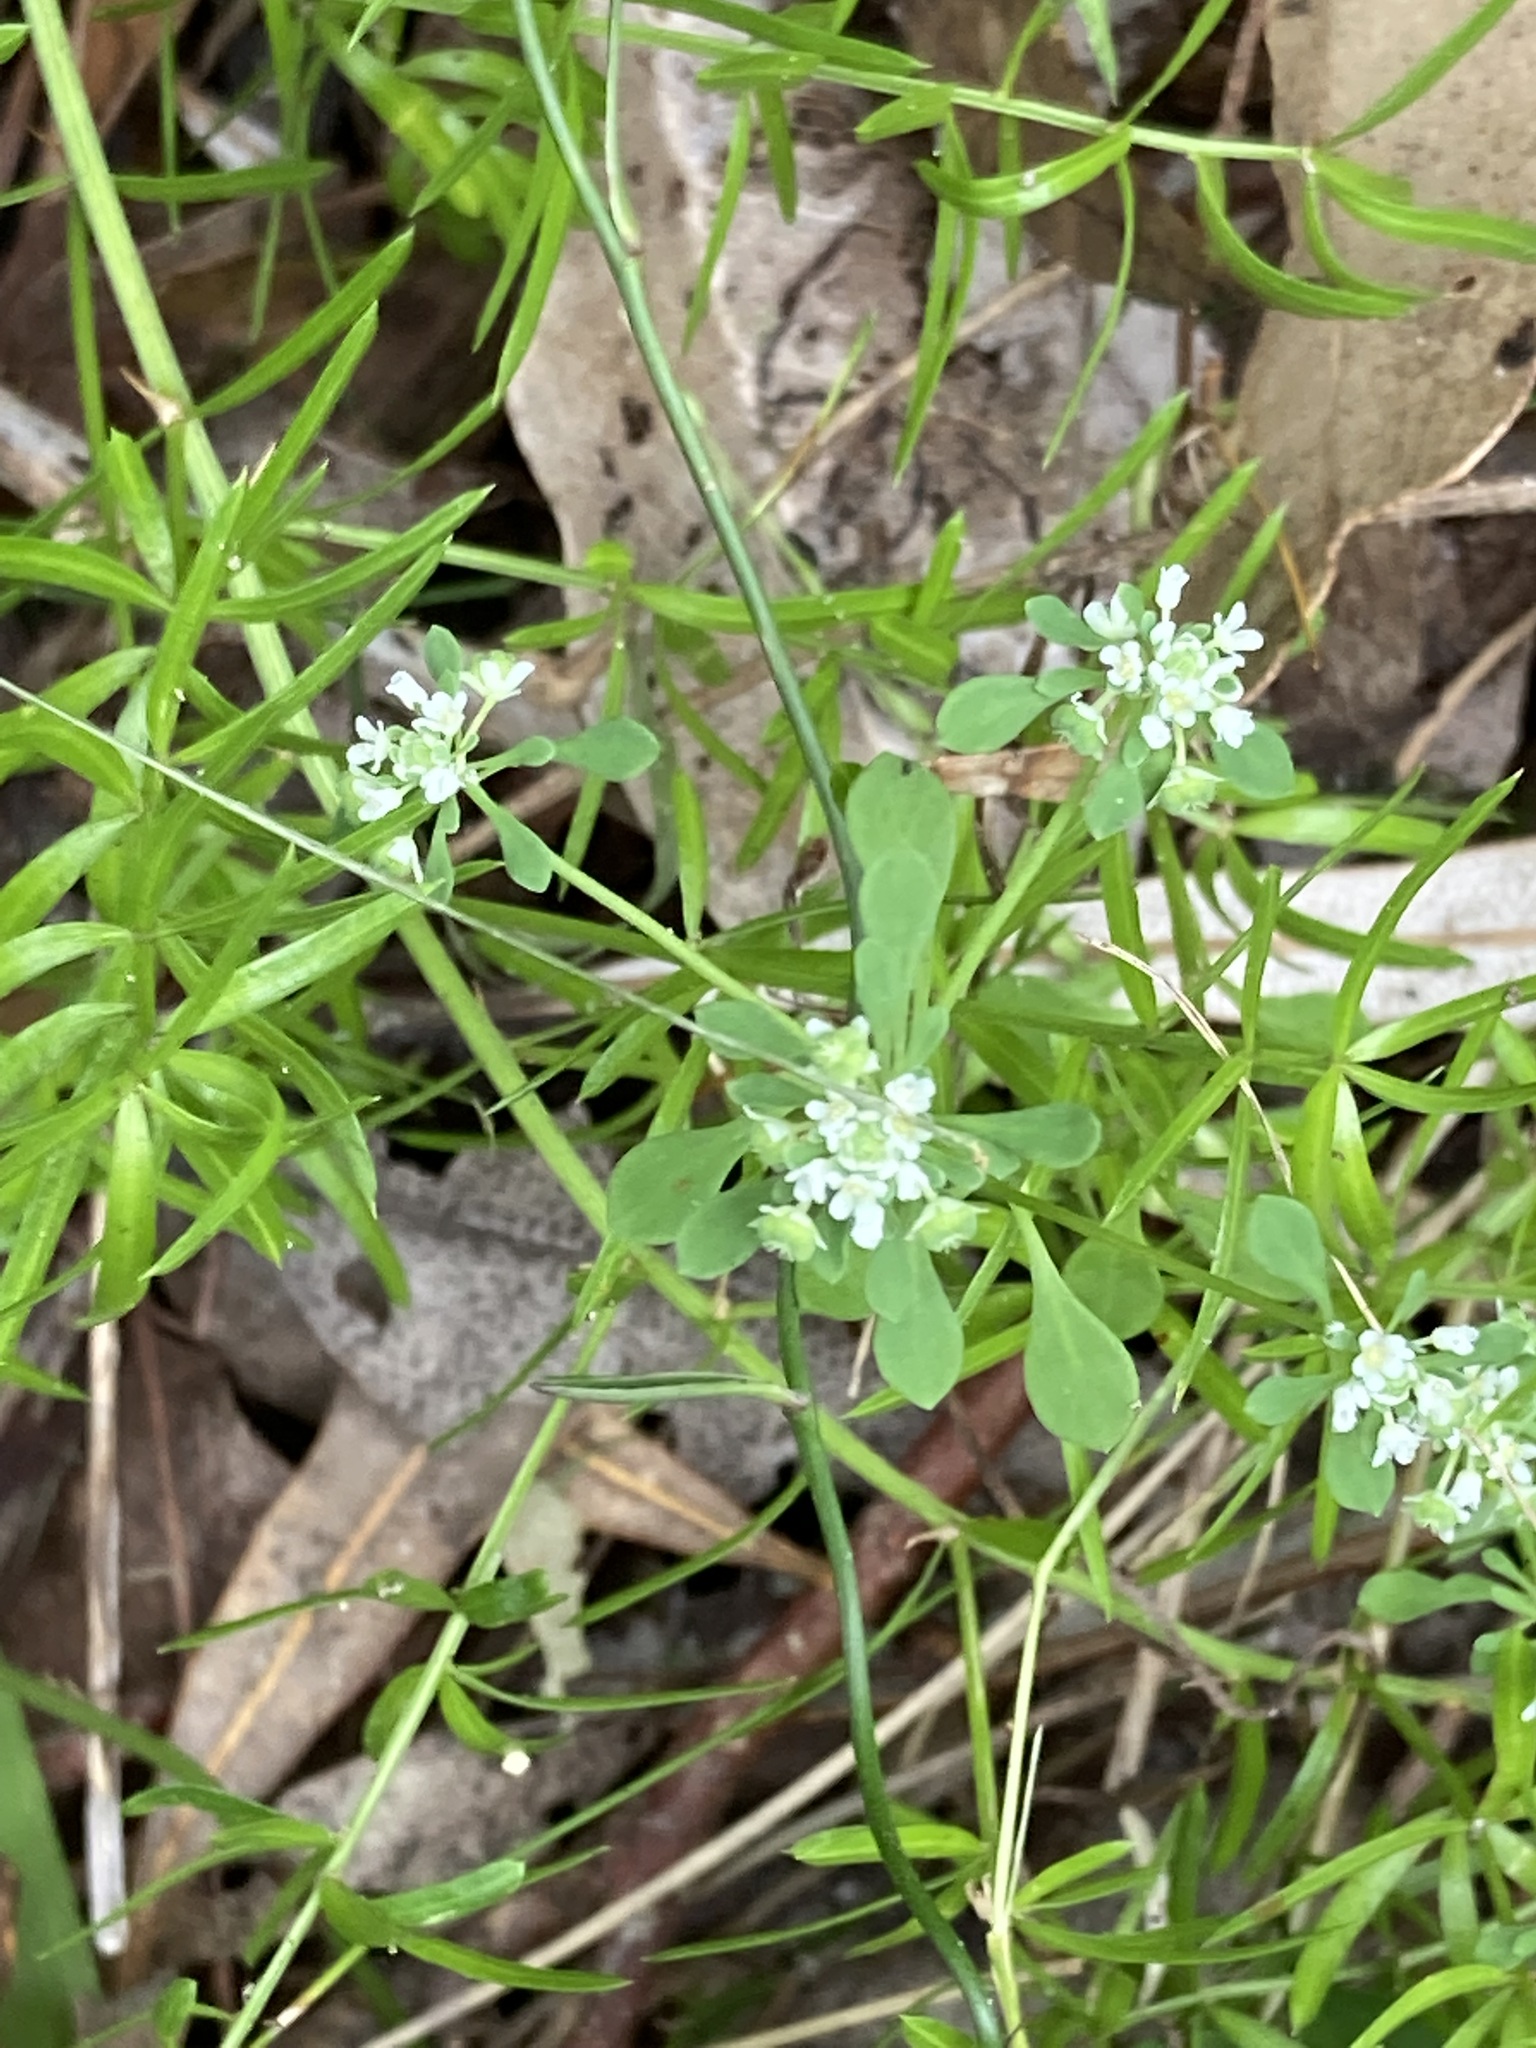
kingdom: Plantae
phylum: Tracheophyta
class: Magnoliopsida
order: Malpighiales
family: Phyllanthaceae
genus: Poranthera
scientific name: Poranthera microphylla
